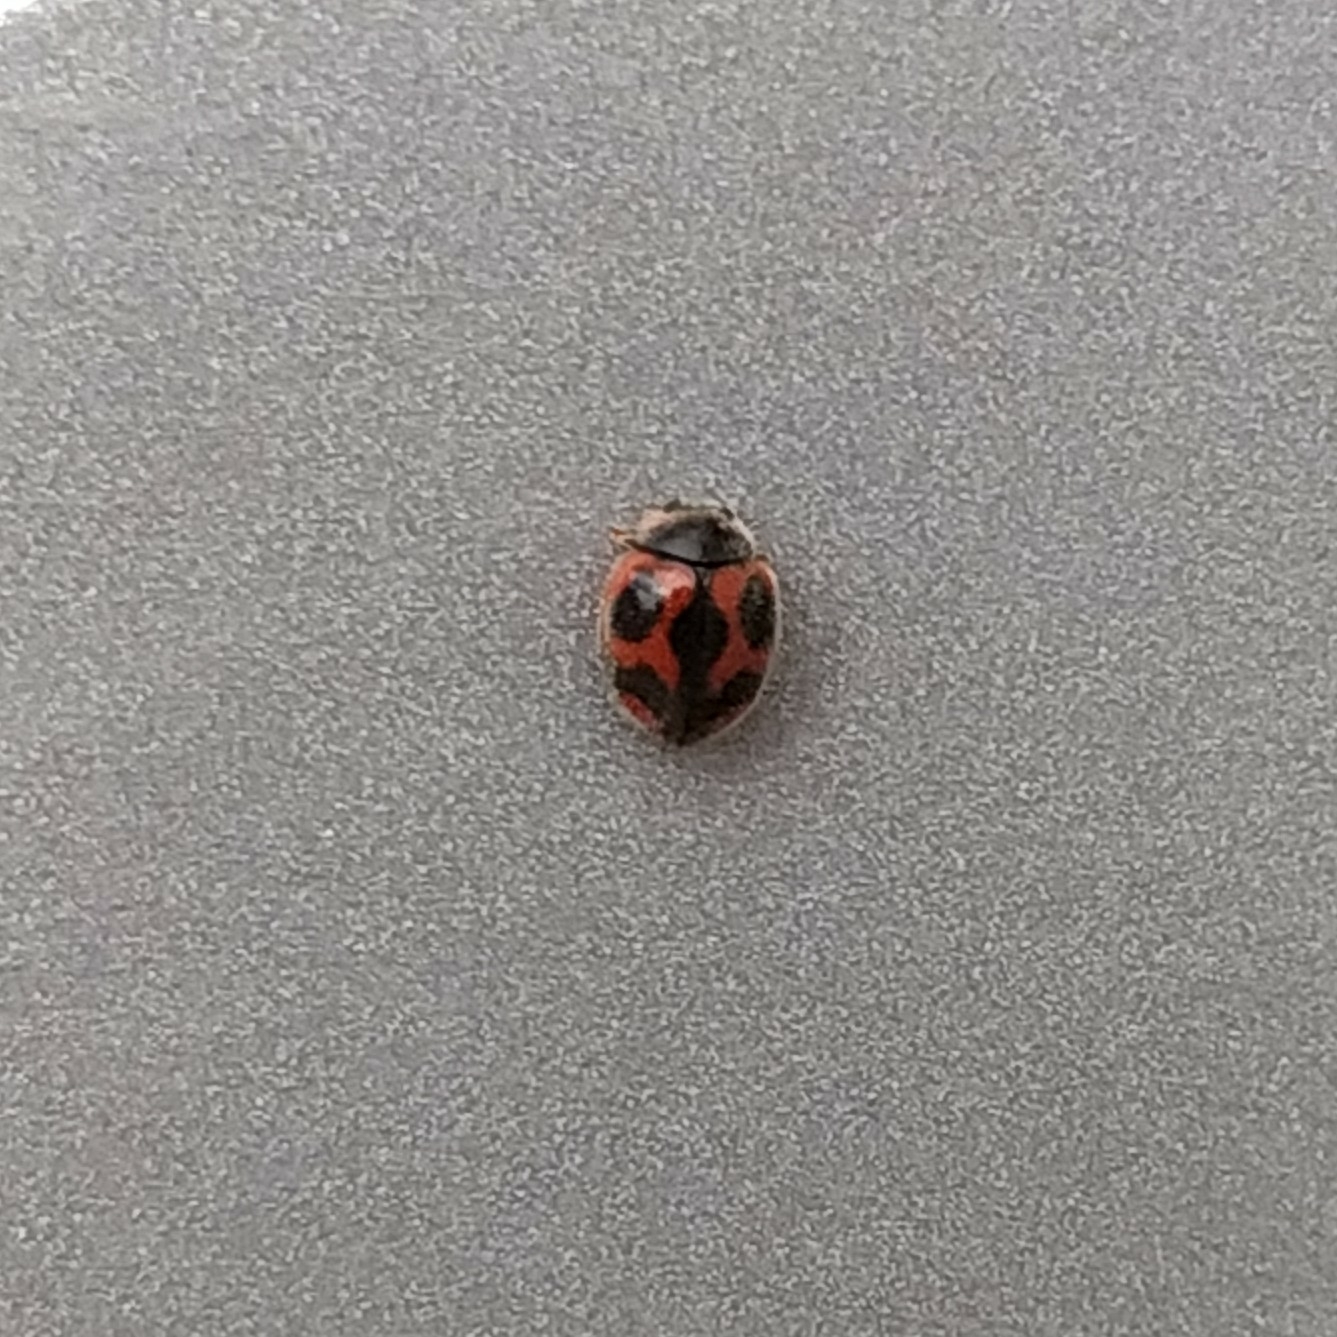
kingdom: Animalia
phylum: Arthropoda
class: Insecta
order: Coleoptera
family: Coccinellidae
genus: Novius
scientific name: Novius cardinalis
